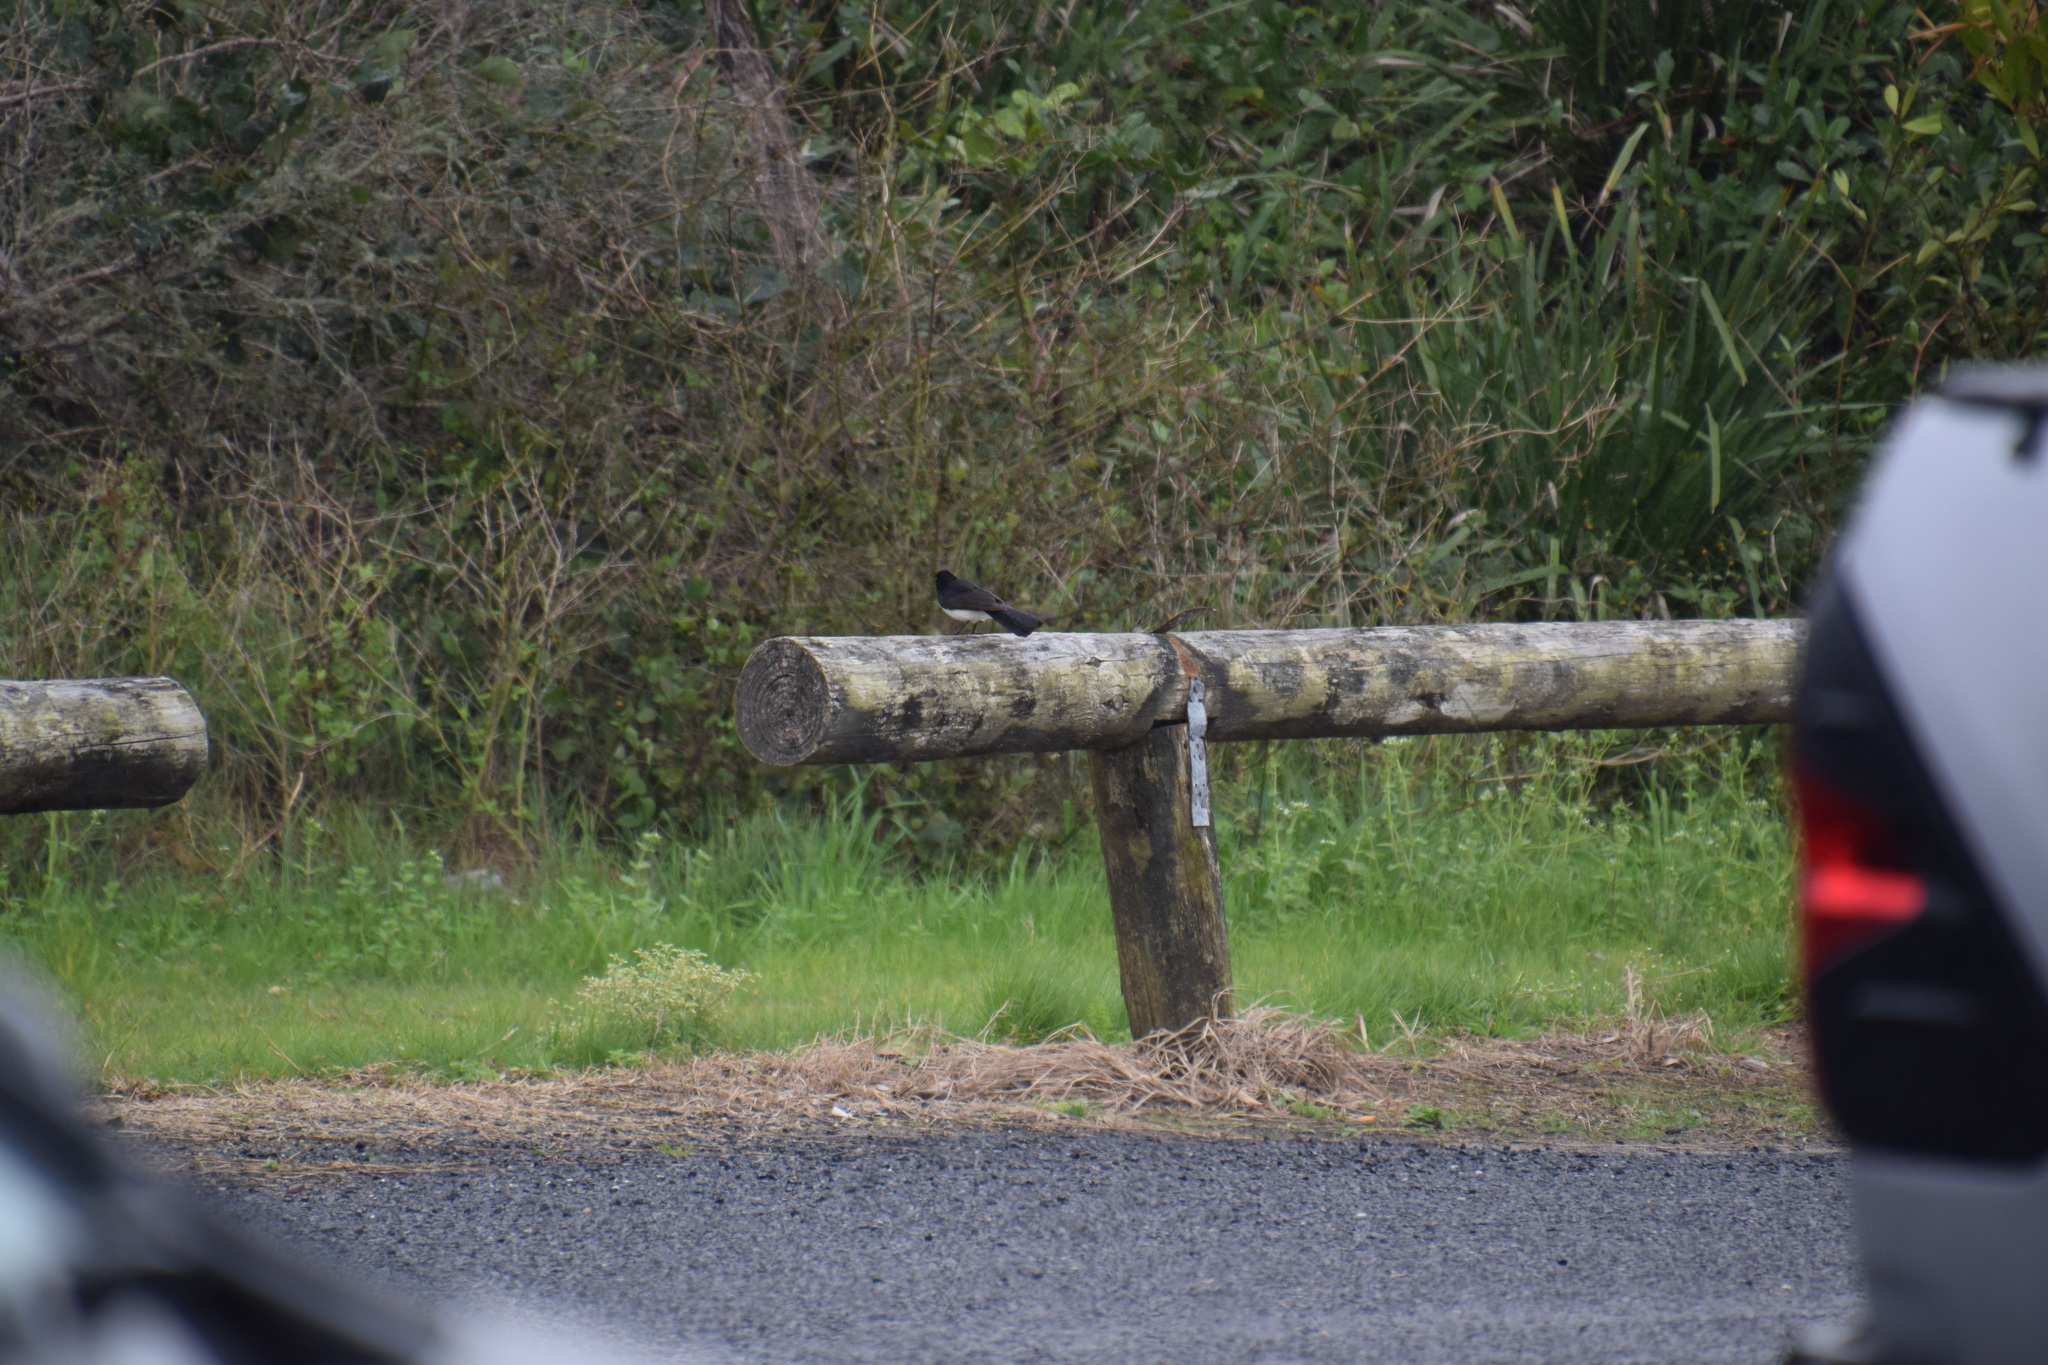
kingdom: Animalia
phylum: Chordata
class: Aves
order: Passeriformes
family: Rhipiduridae
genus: Rhipidura
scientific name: Rhipidura leucophrys
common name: Willie wagtail
